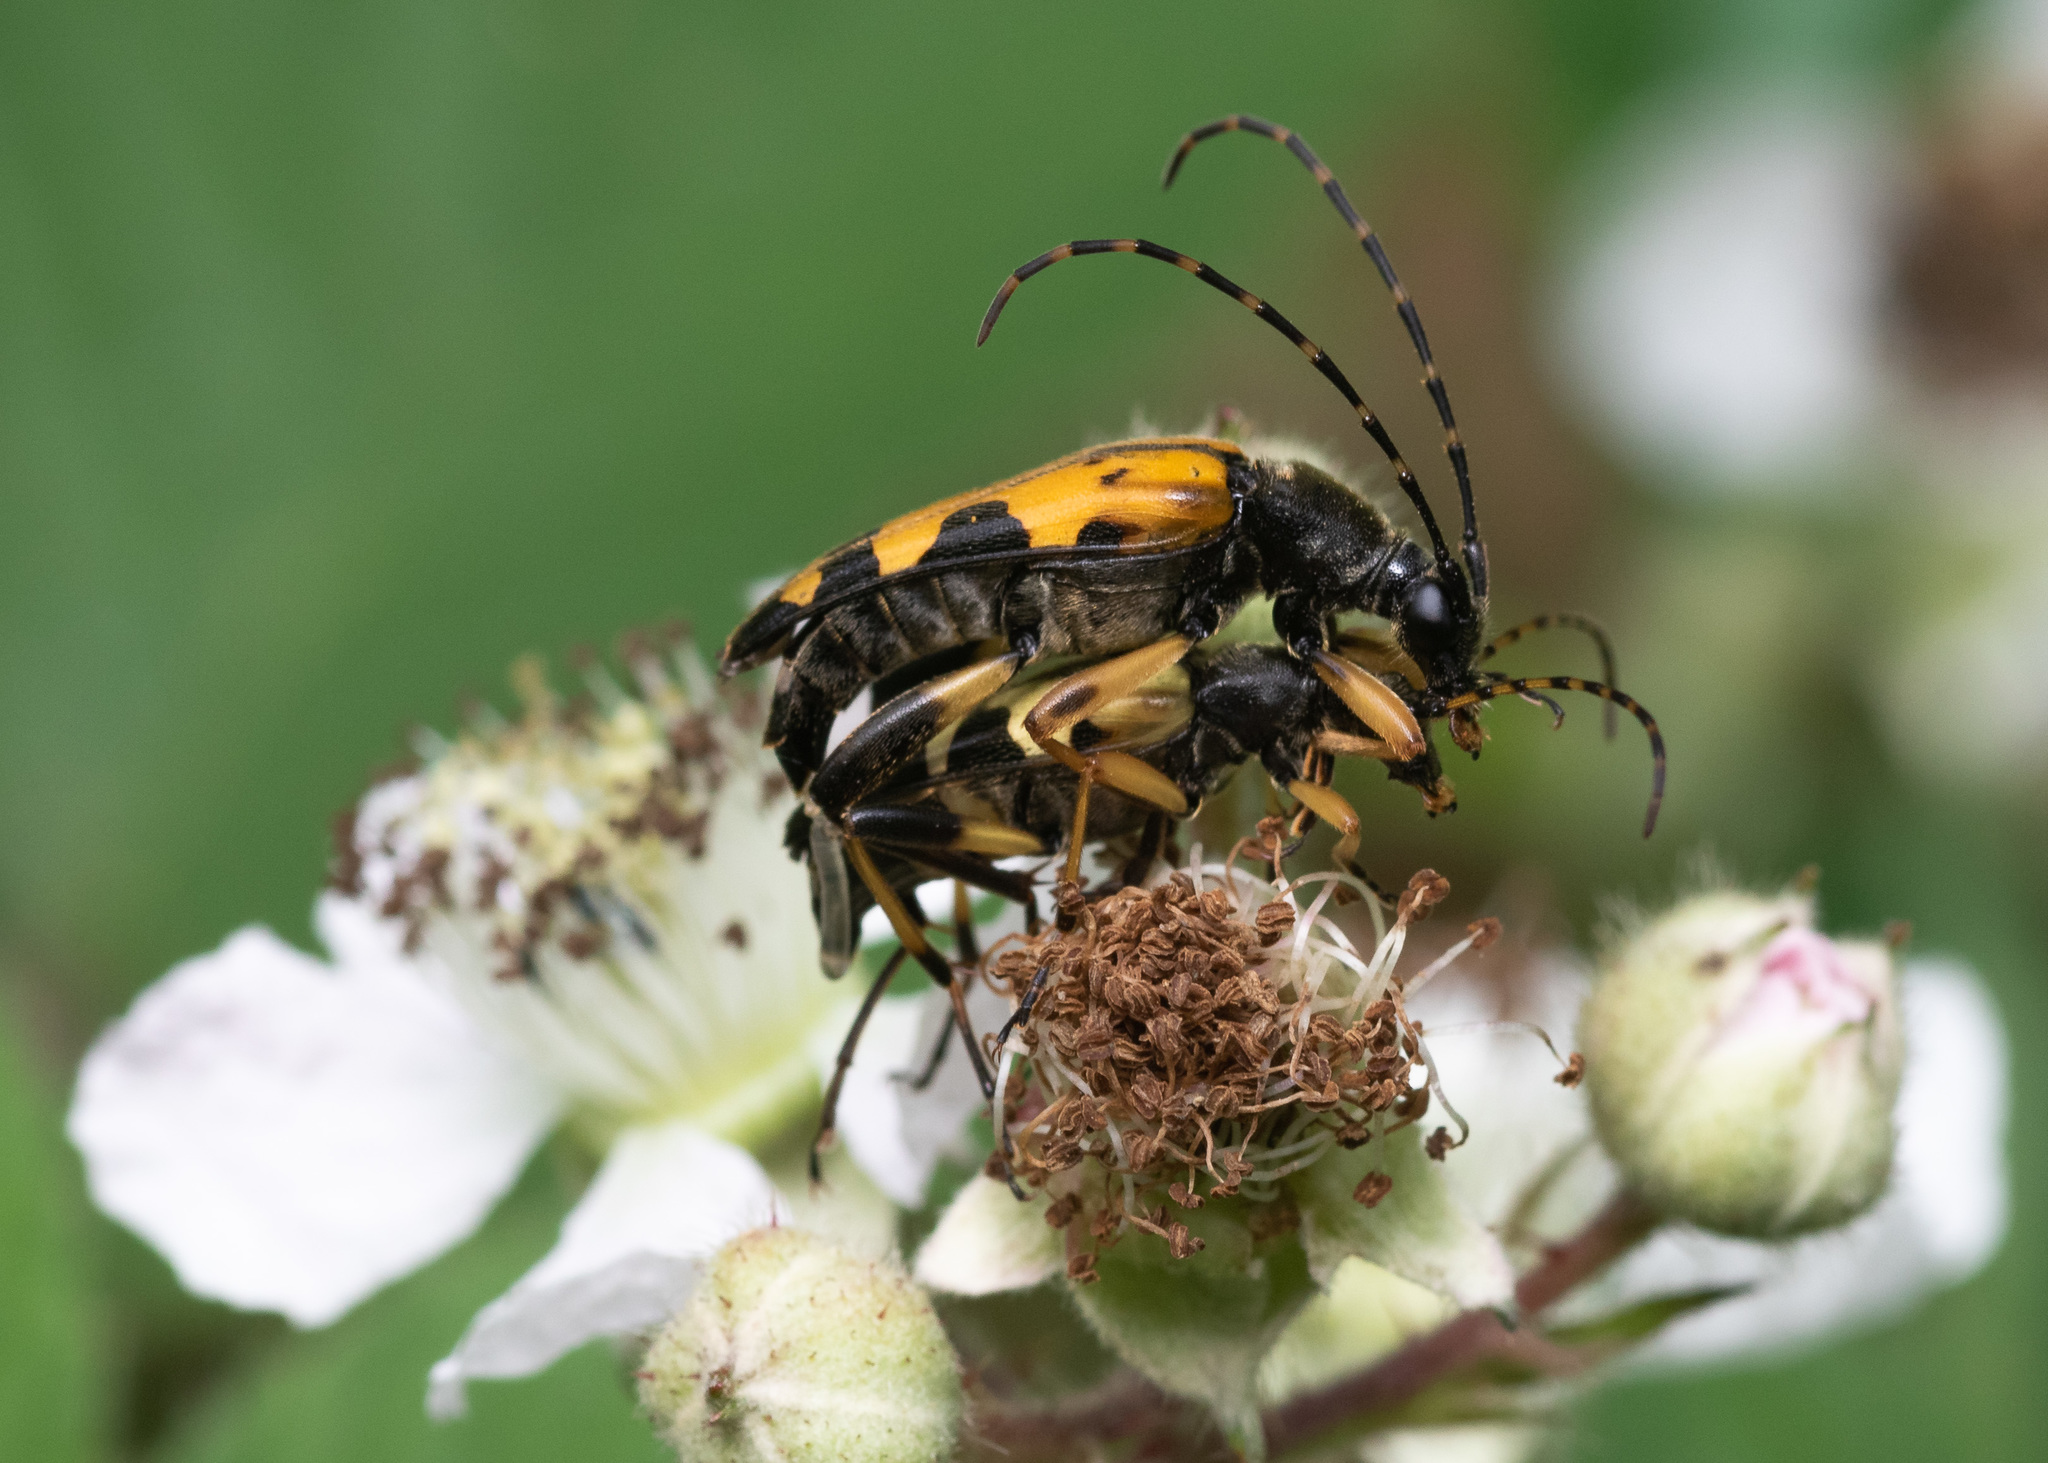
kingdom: Animalia
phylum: Arthropoda
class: Insecta
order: Coleoptera
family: Cerambycidae
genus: Rutpela
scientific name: Rutpela maculata
